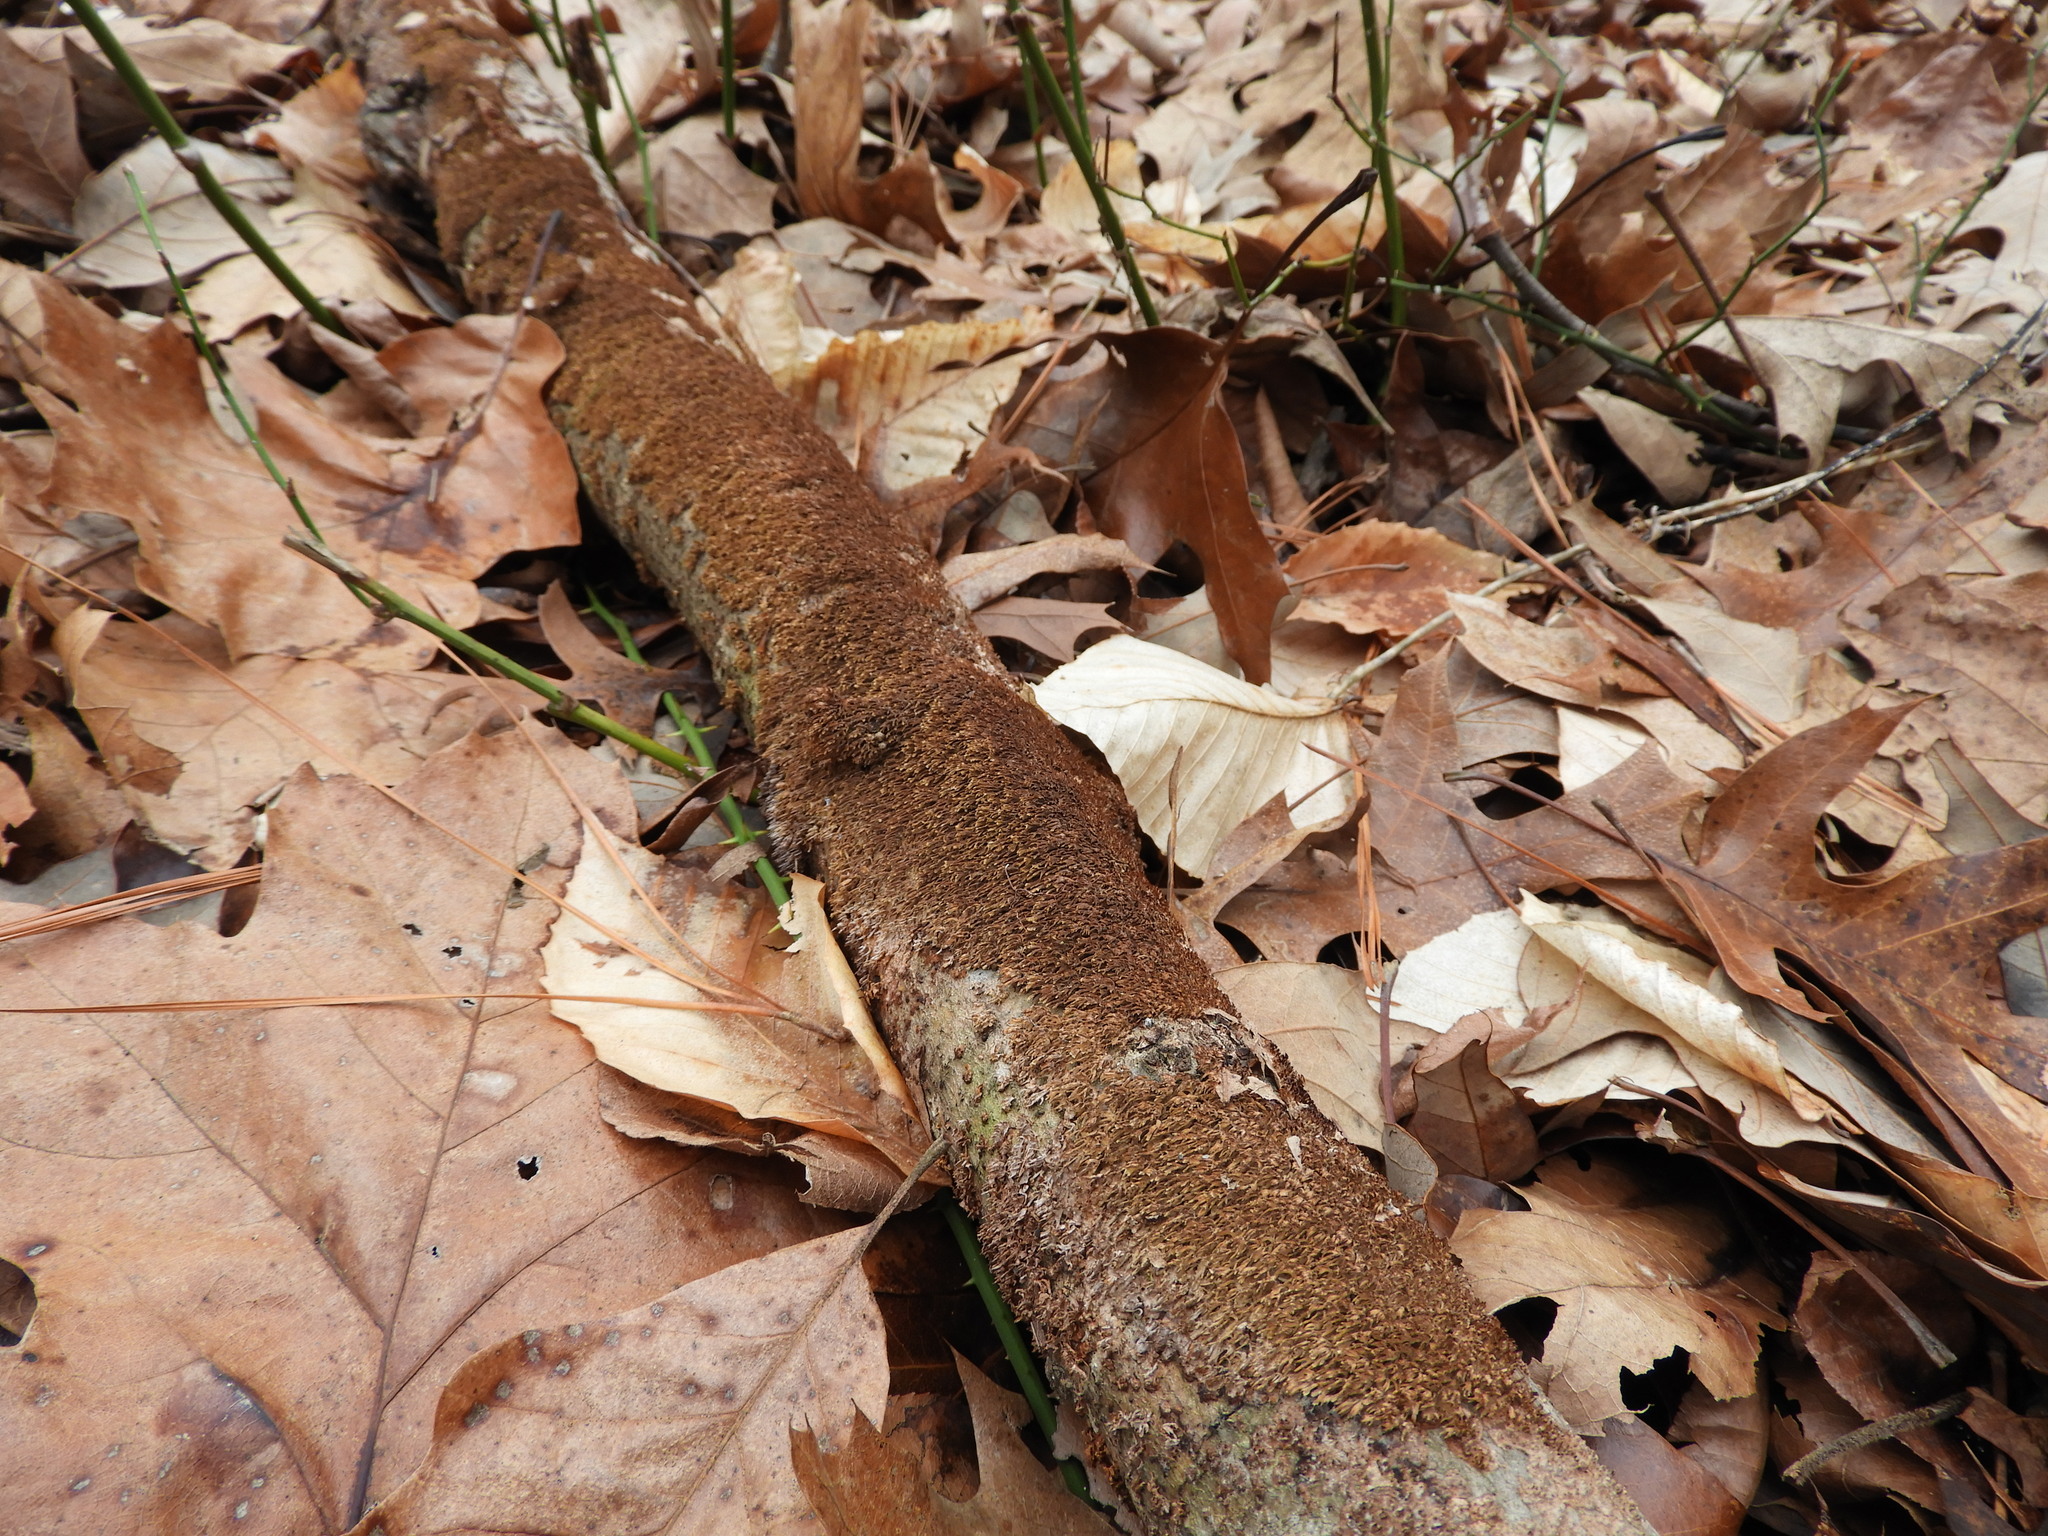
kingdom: Fungi
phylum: Basidiomycota
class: Agaricomycetes
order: Hymenochaetales
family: Hymenochaetaceae
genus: Hydnoporia
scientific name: Hydnoporia olivacea
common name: Brown-toothed crust fungus
